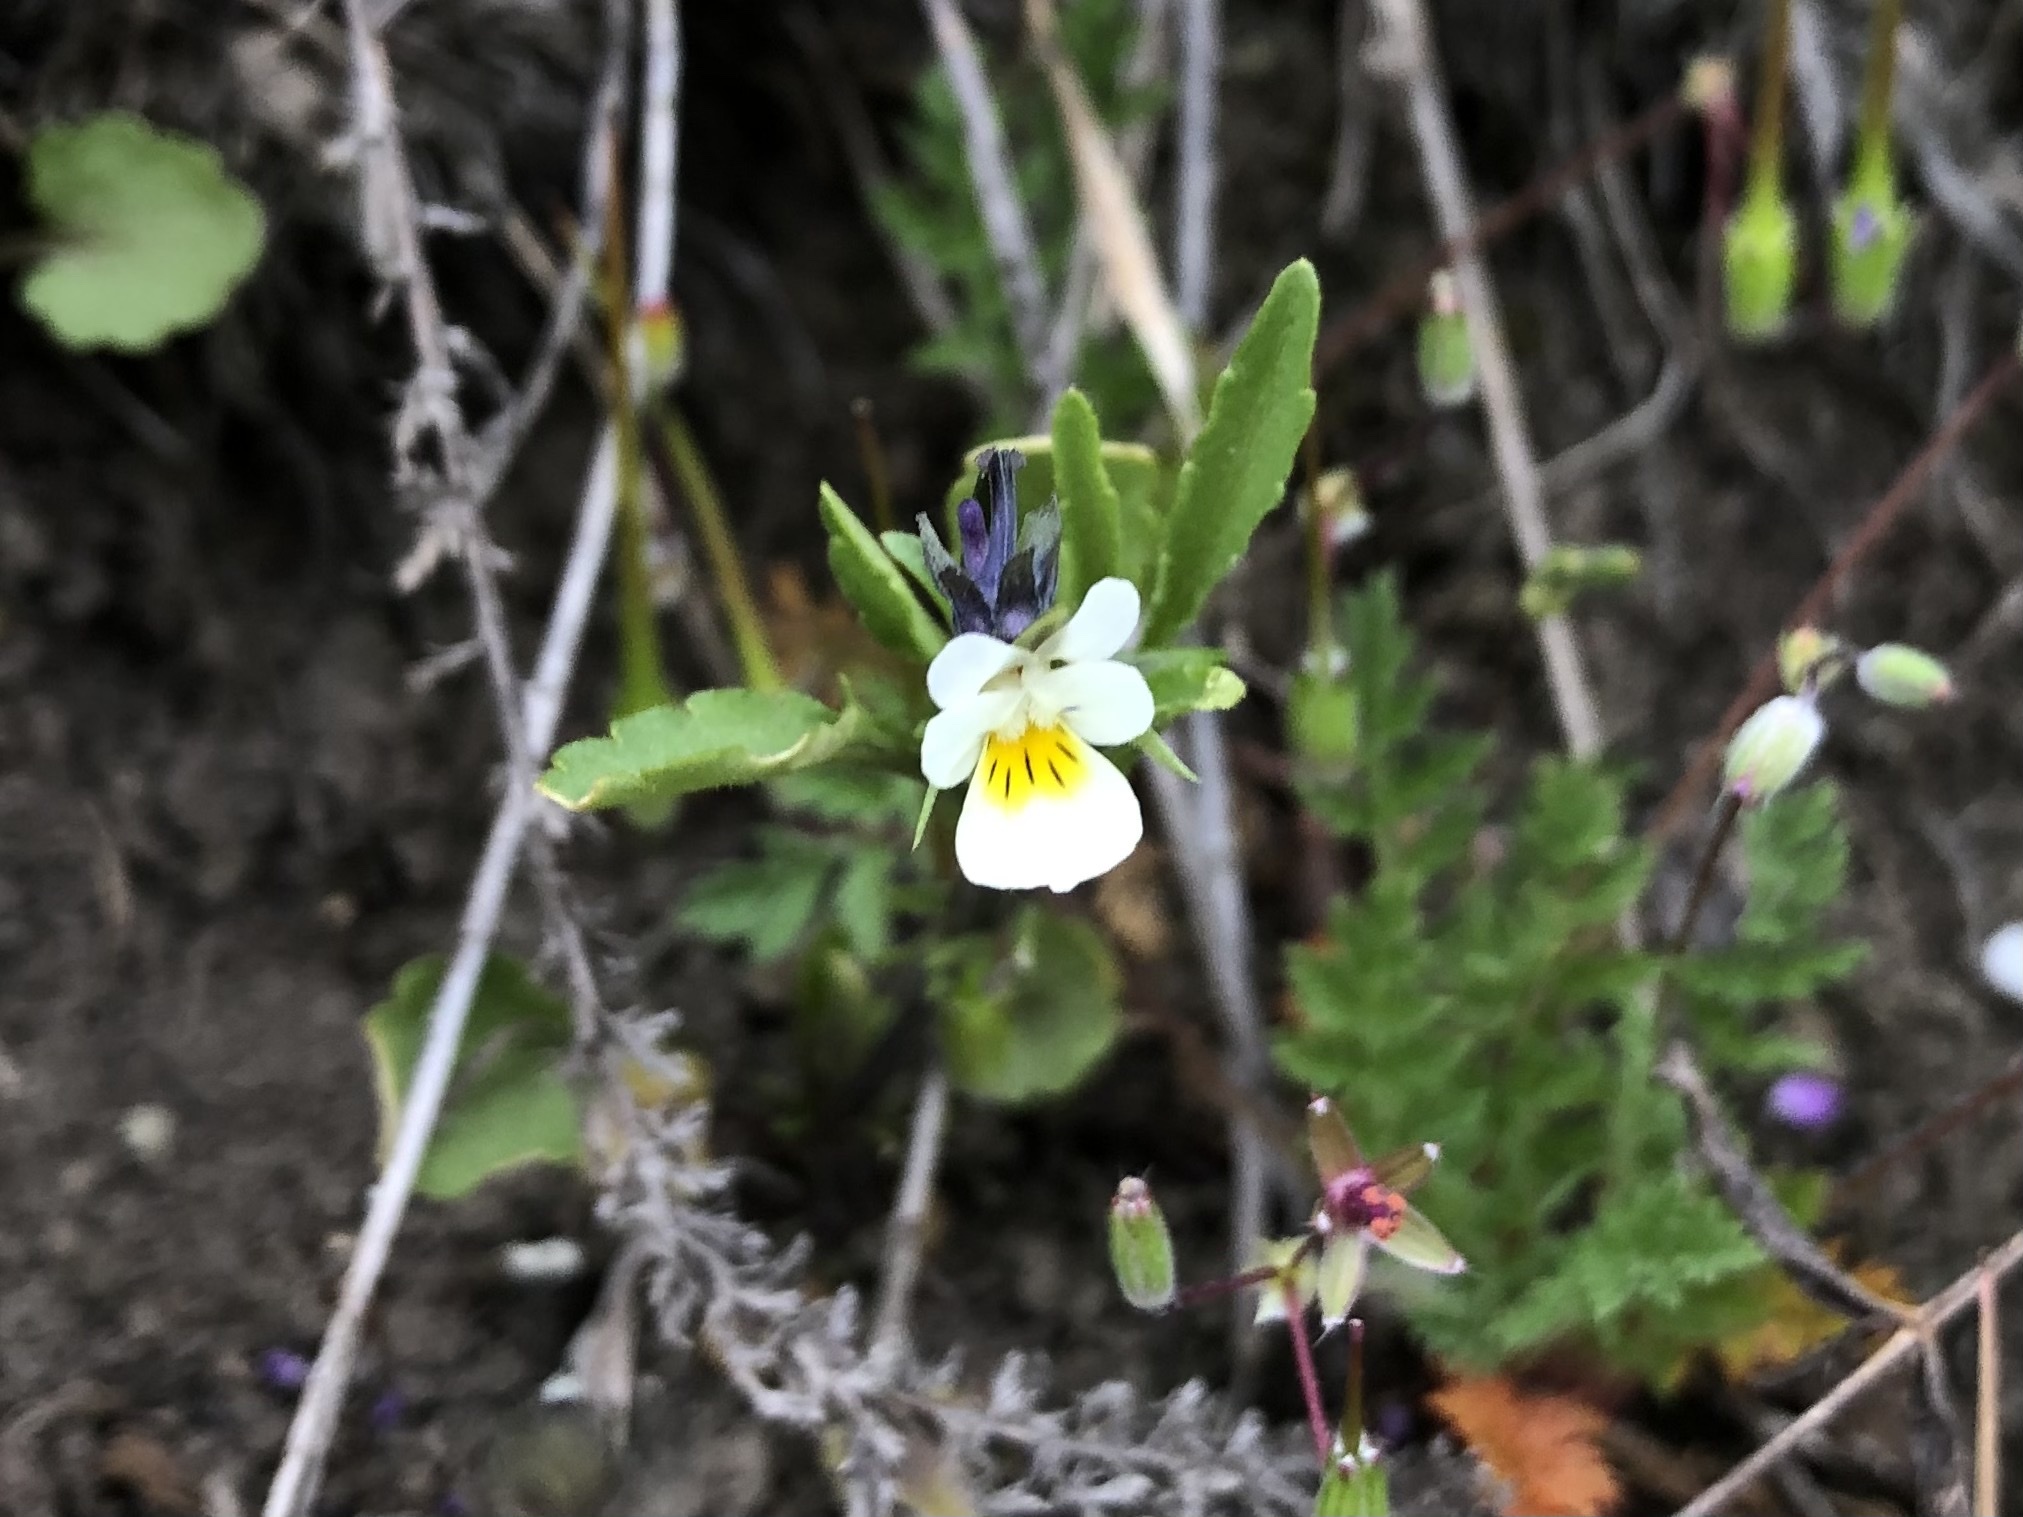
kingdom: Plantae
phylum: Tracheophyta
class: Magnoliopsida
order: Malpighiales
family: Violaceae
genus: Viola
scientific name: Viola arvensis
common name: Field pansy
